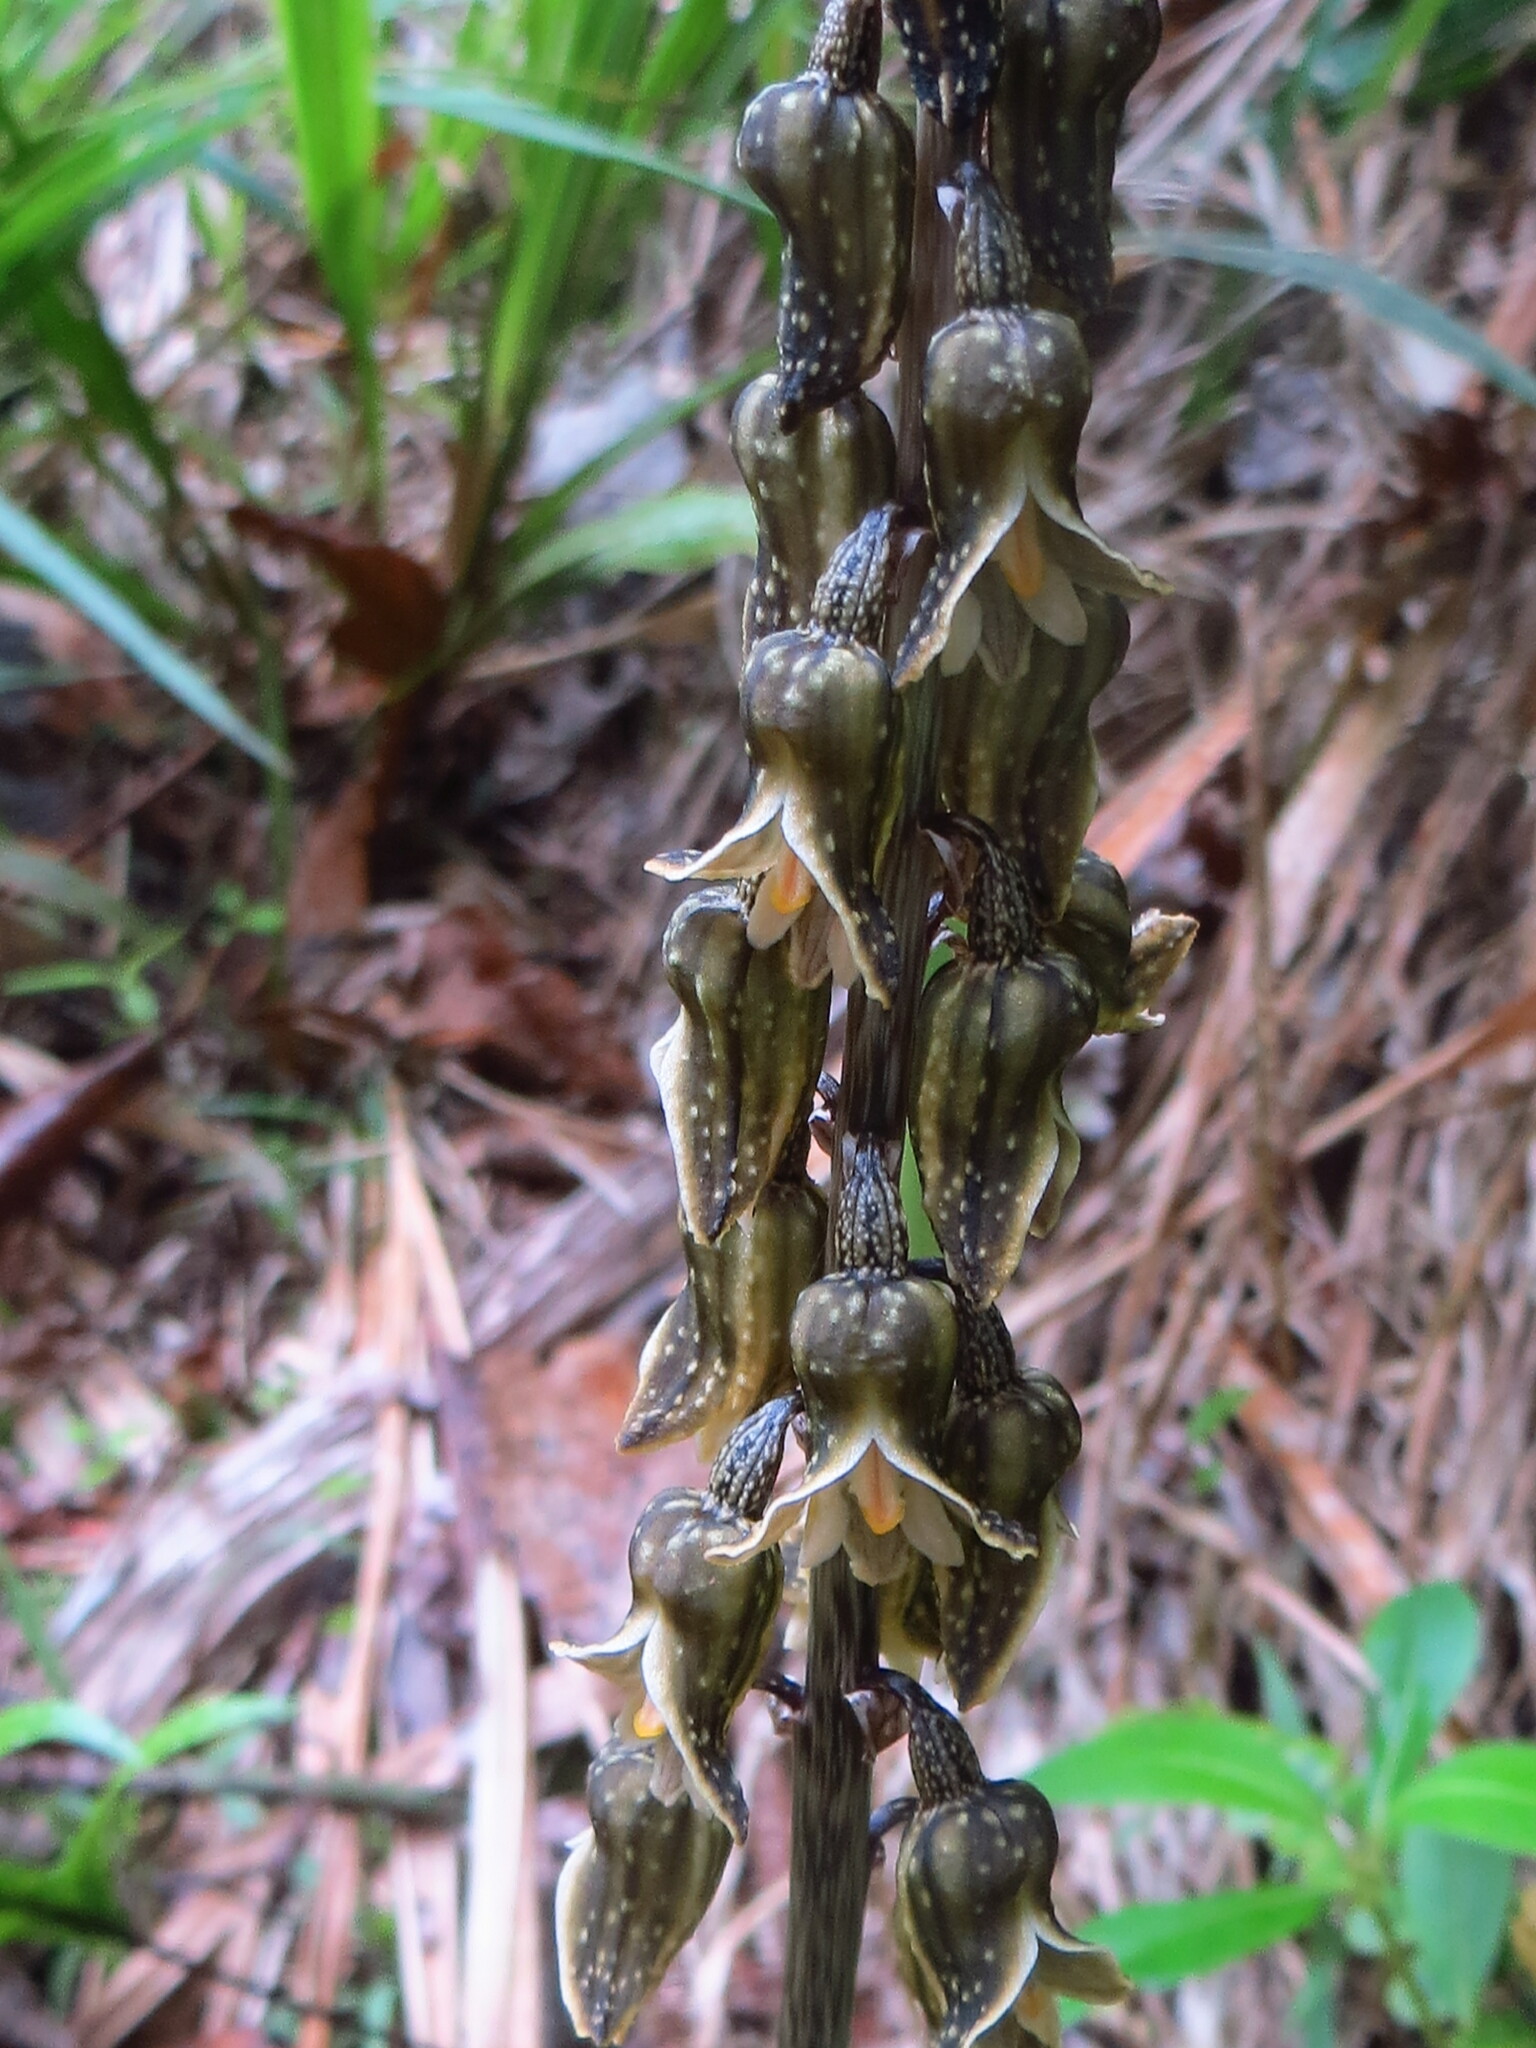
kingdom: Plantae
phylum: Tracheophyta
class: Liliopsida
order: Asparagales
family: Orchidaceae
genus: Gastrodia
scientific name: Gastrodia molloyi
